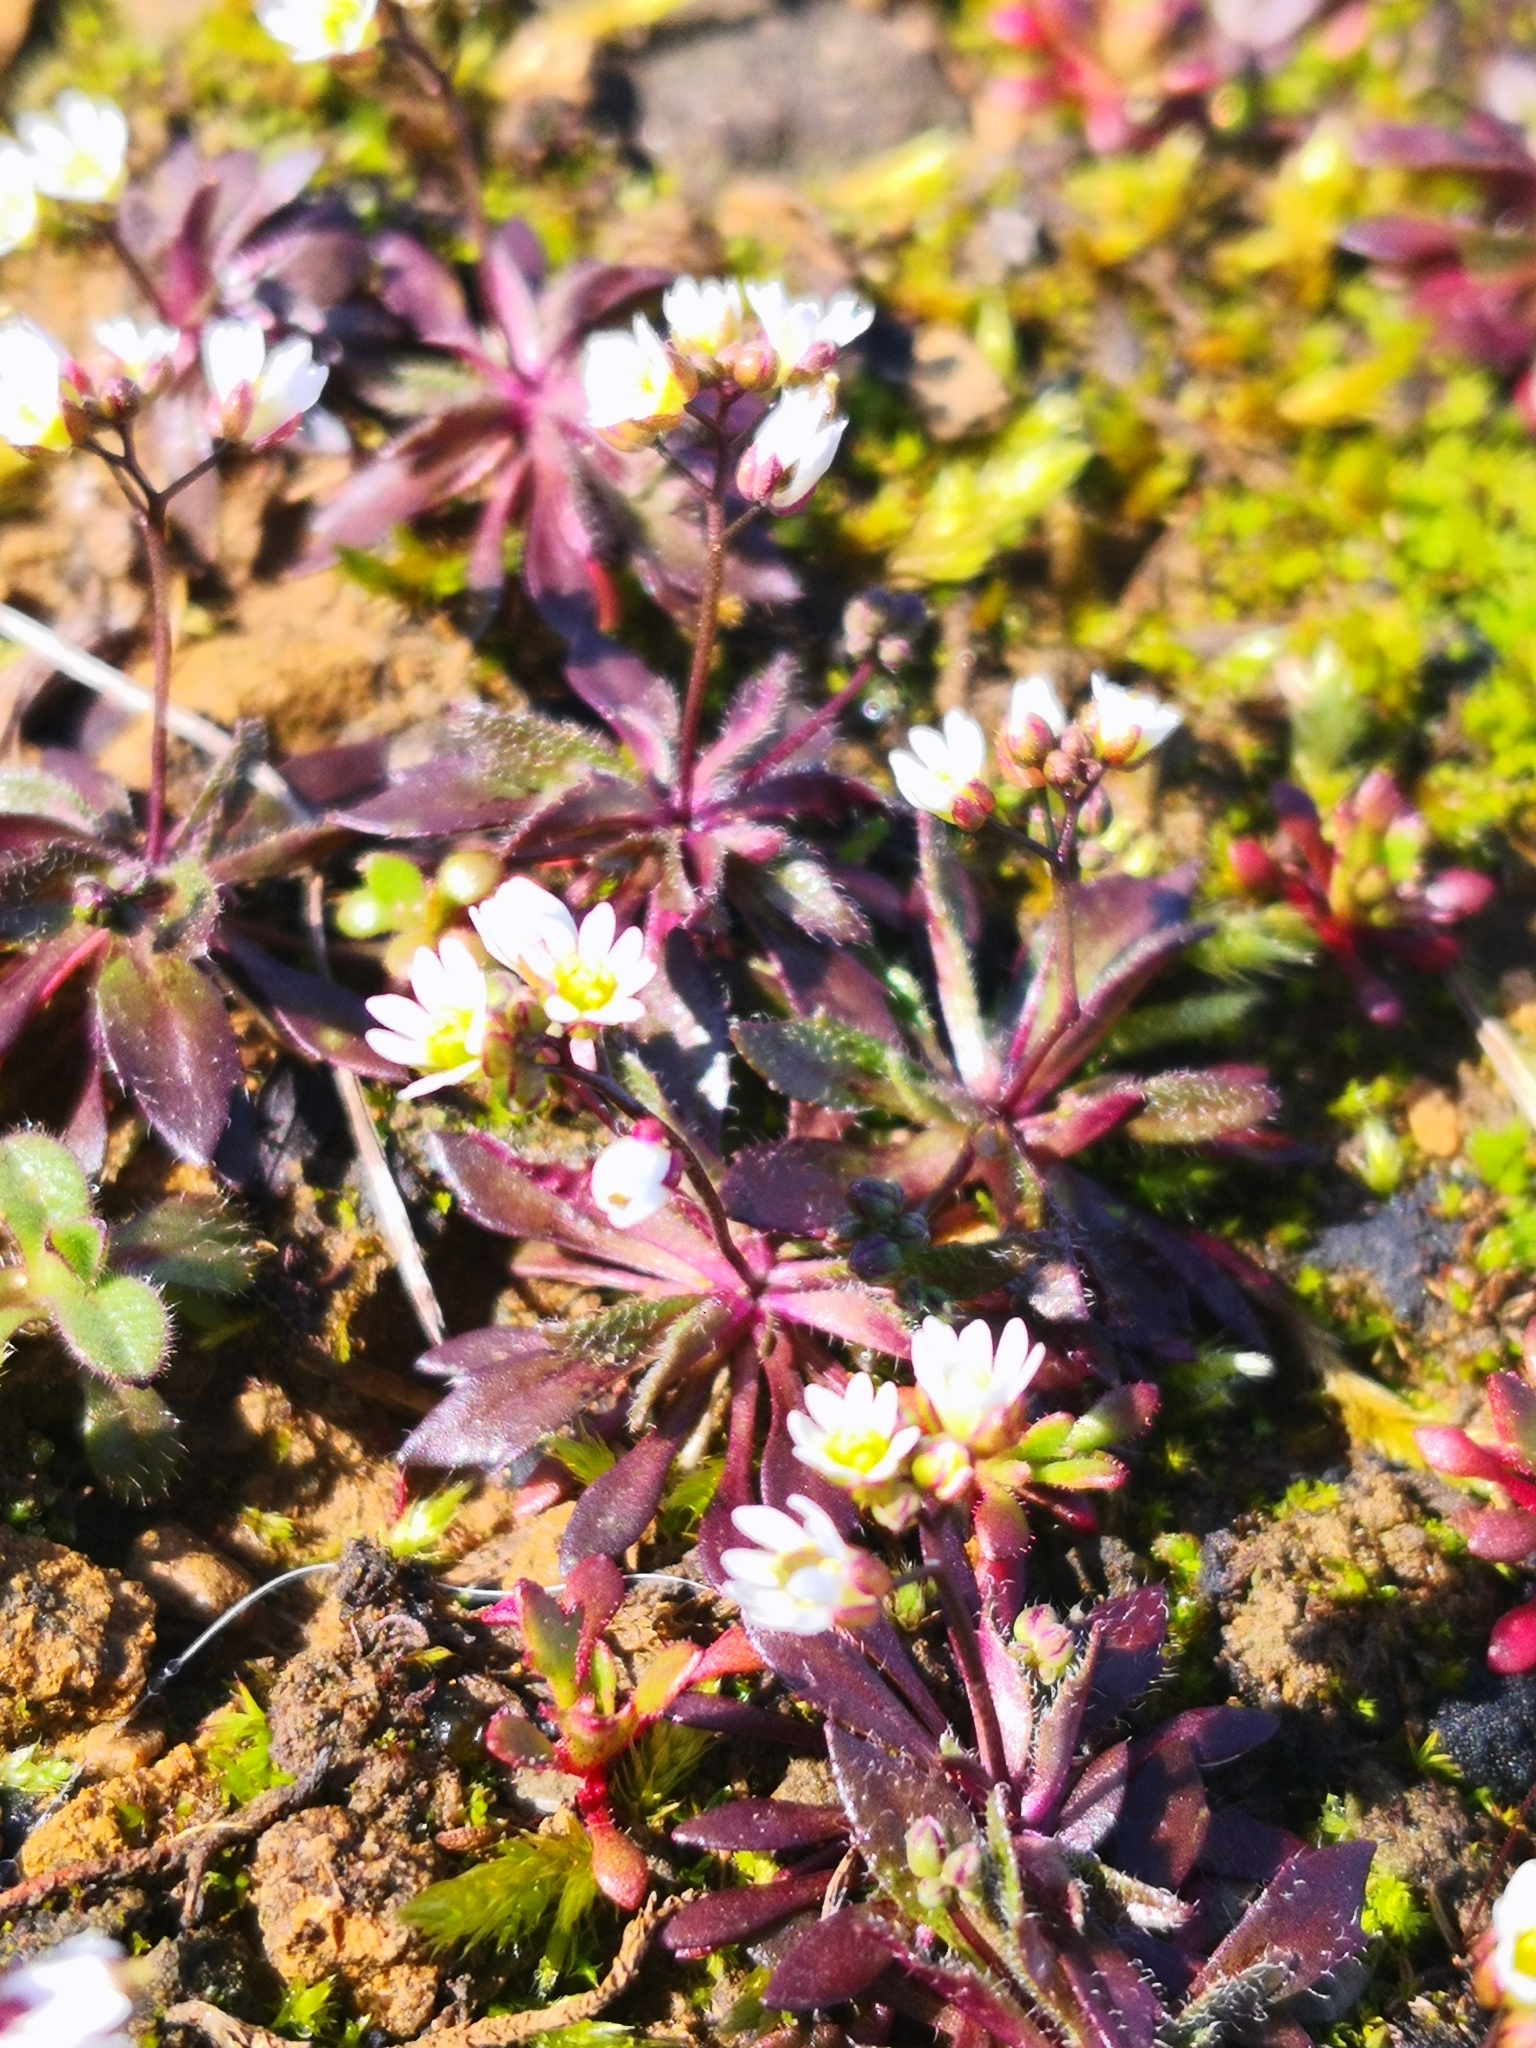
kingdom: Plantae
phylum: Tracheophyta
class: Magnoliopsida
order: Brassicales
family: Brassicaceae
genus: Draba
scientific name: Draba verna
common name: Spring draba
